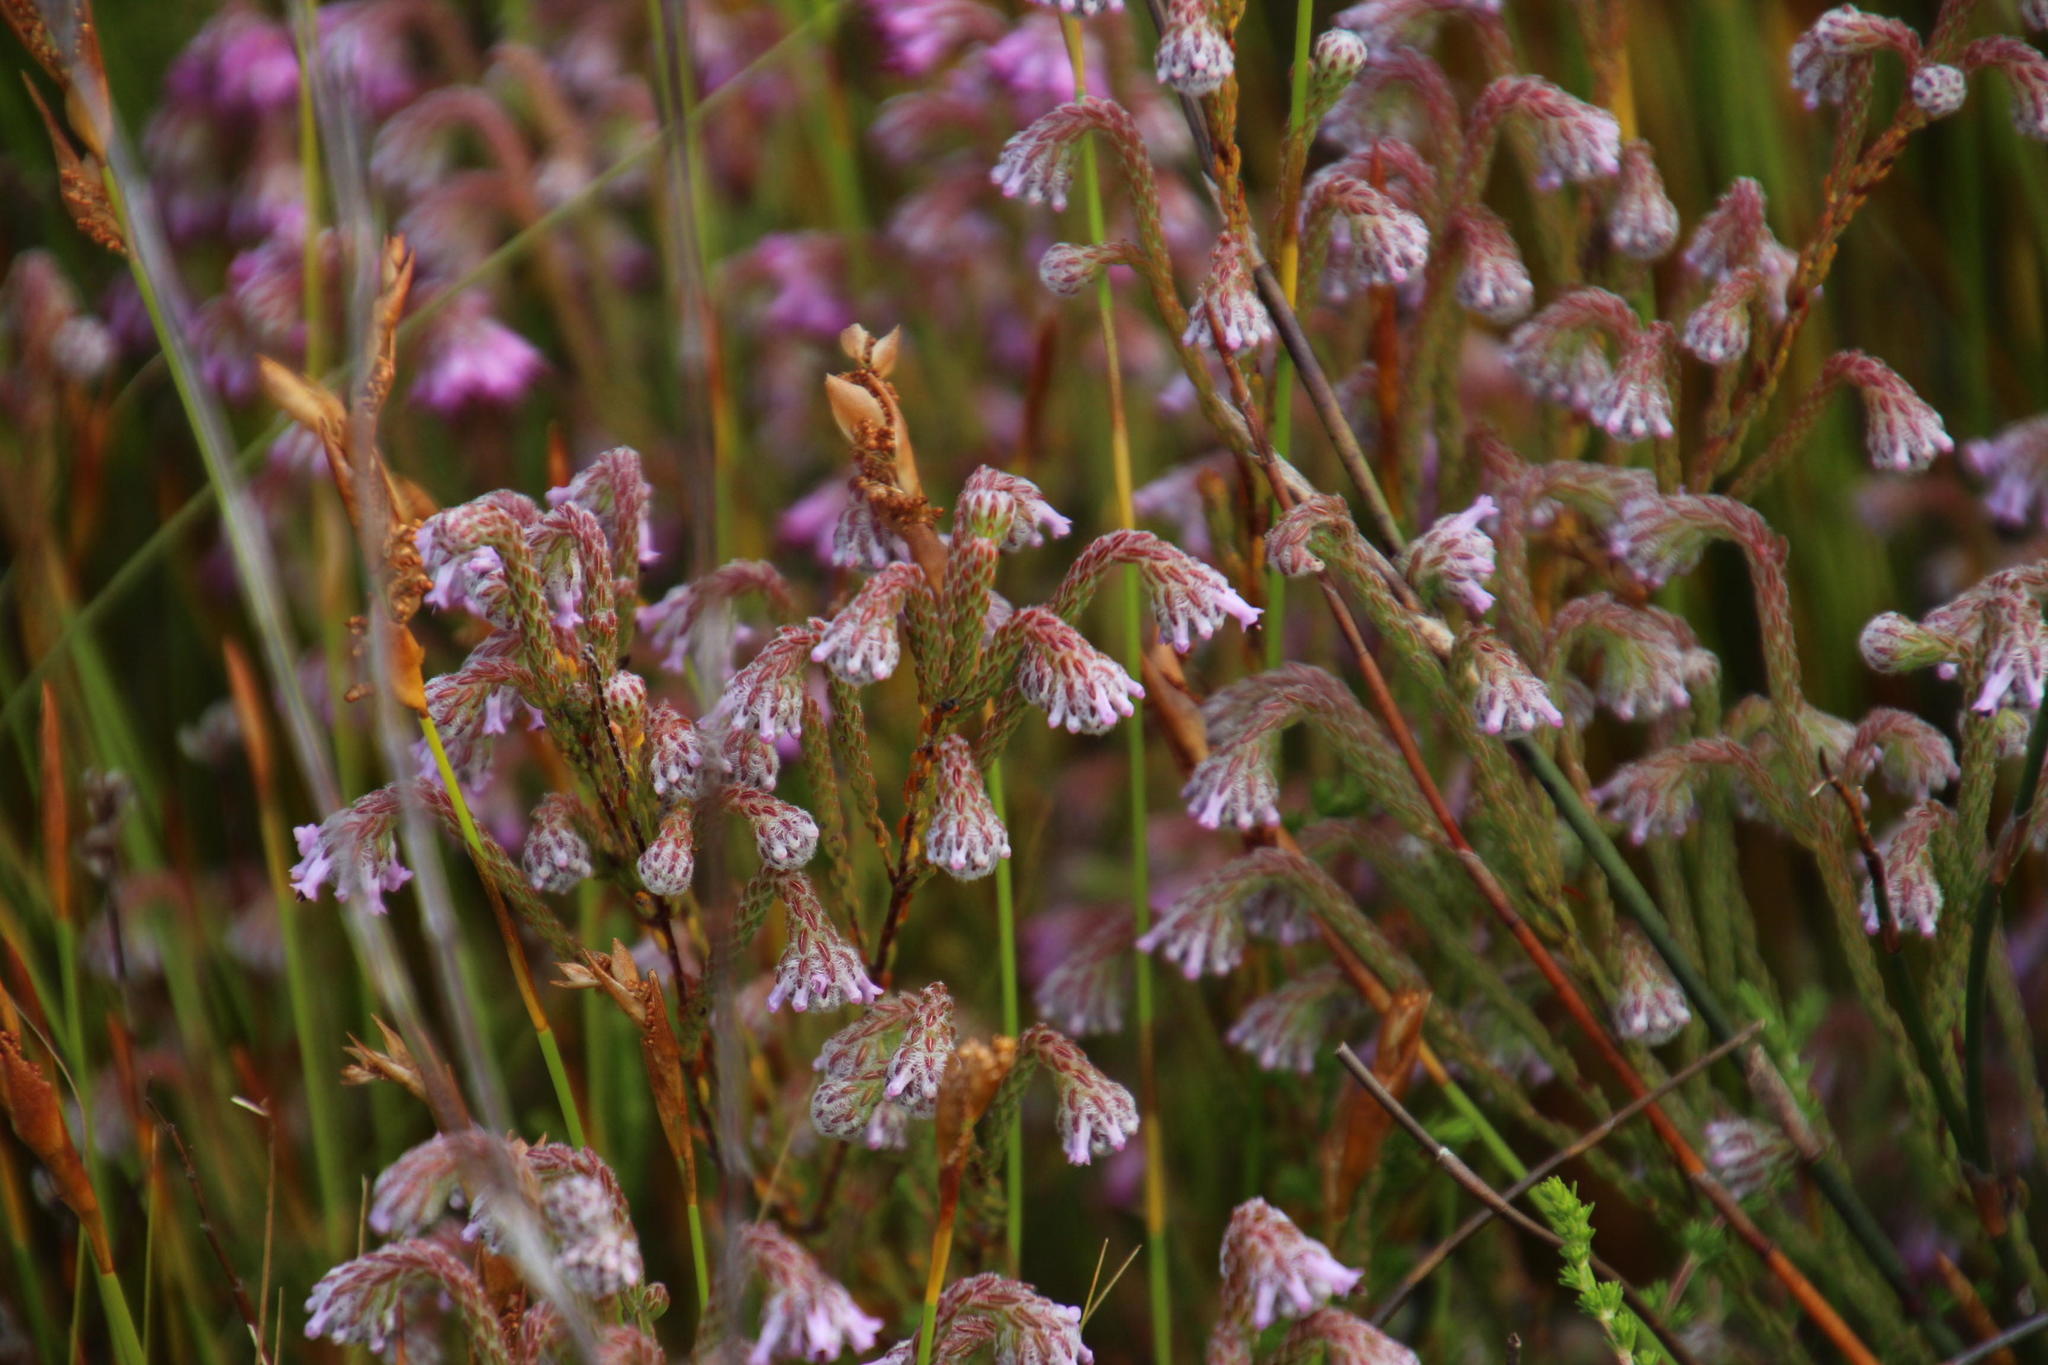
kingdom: Plantae
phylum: Tracheophyta
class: Magnoliopsida
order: Ericales
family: Ericaceae
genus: Erica
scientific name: Erica barbigeroides
